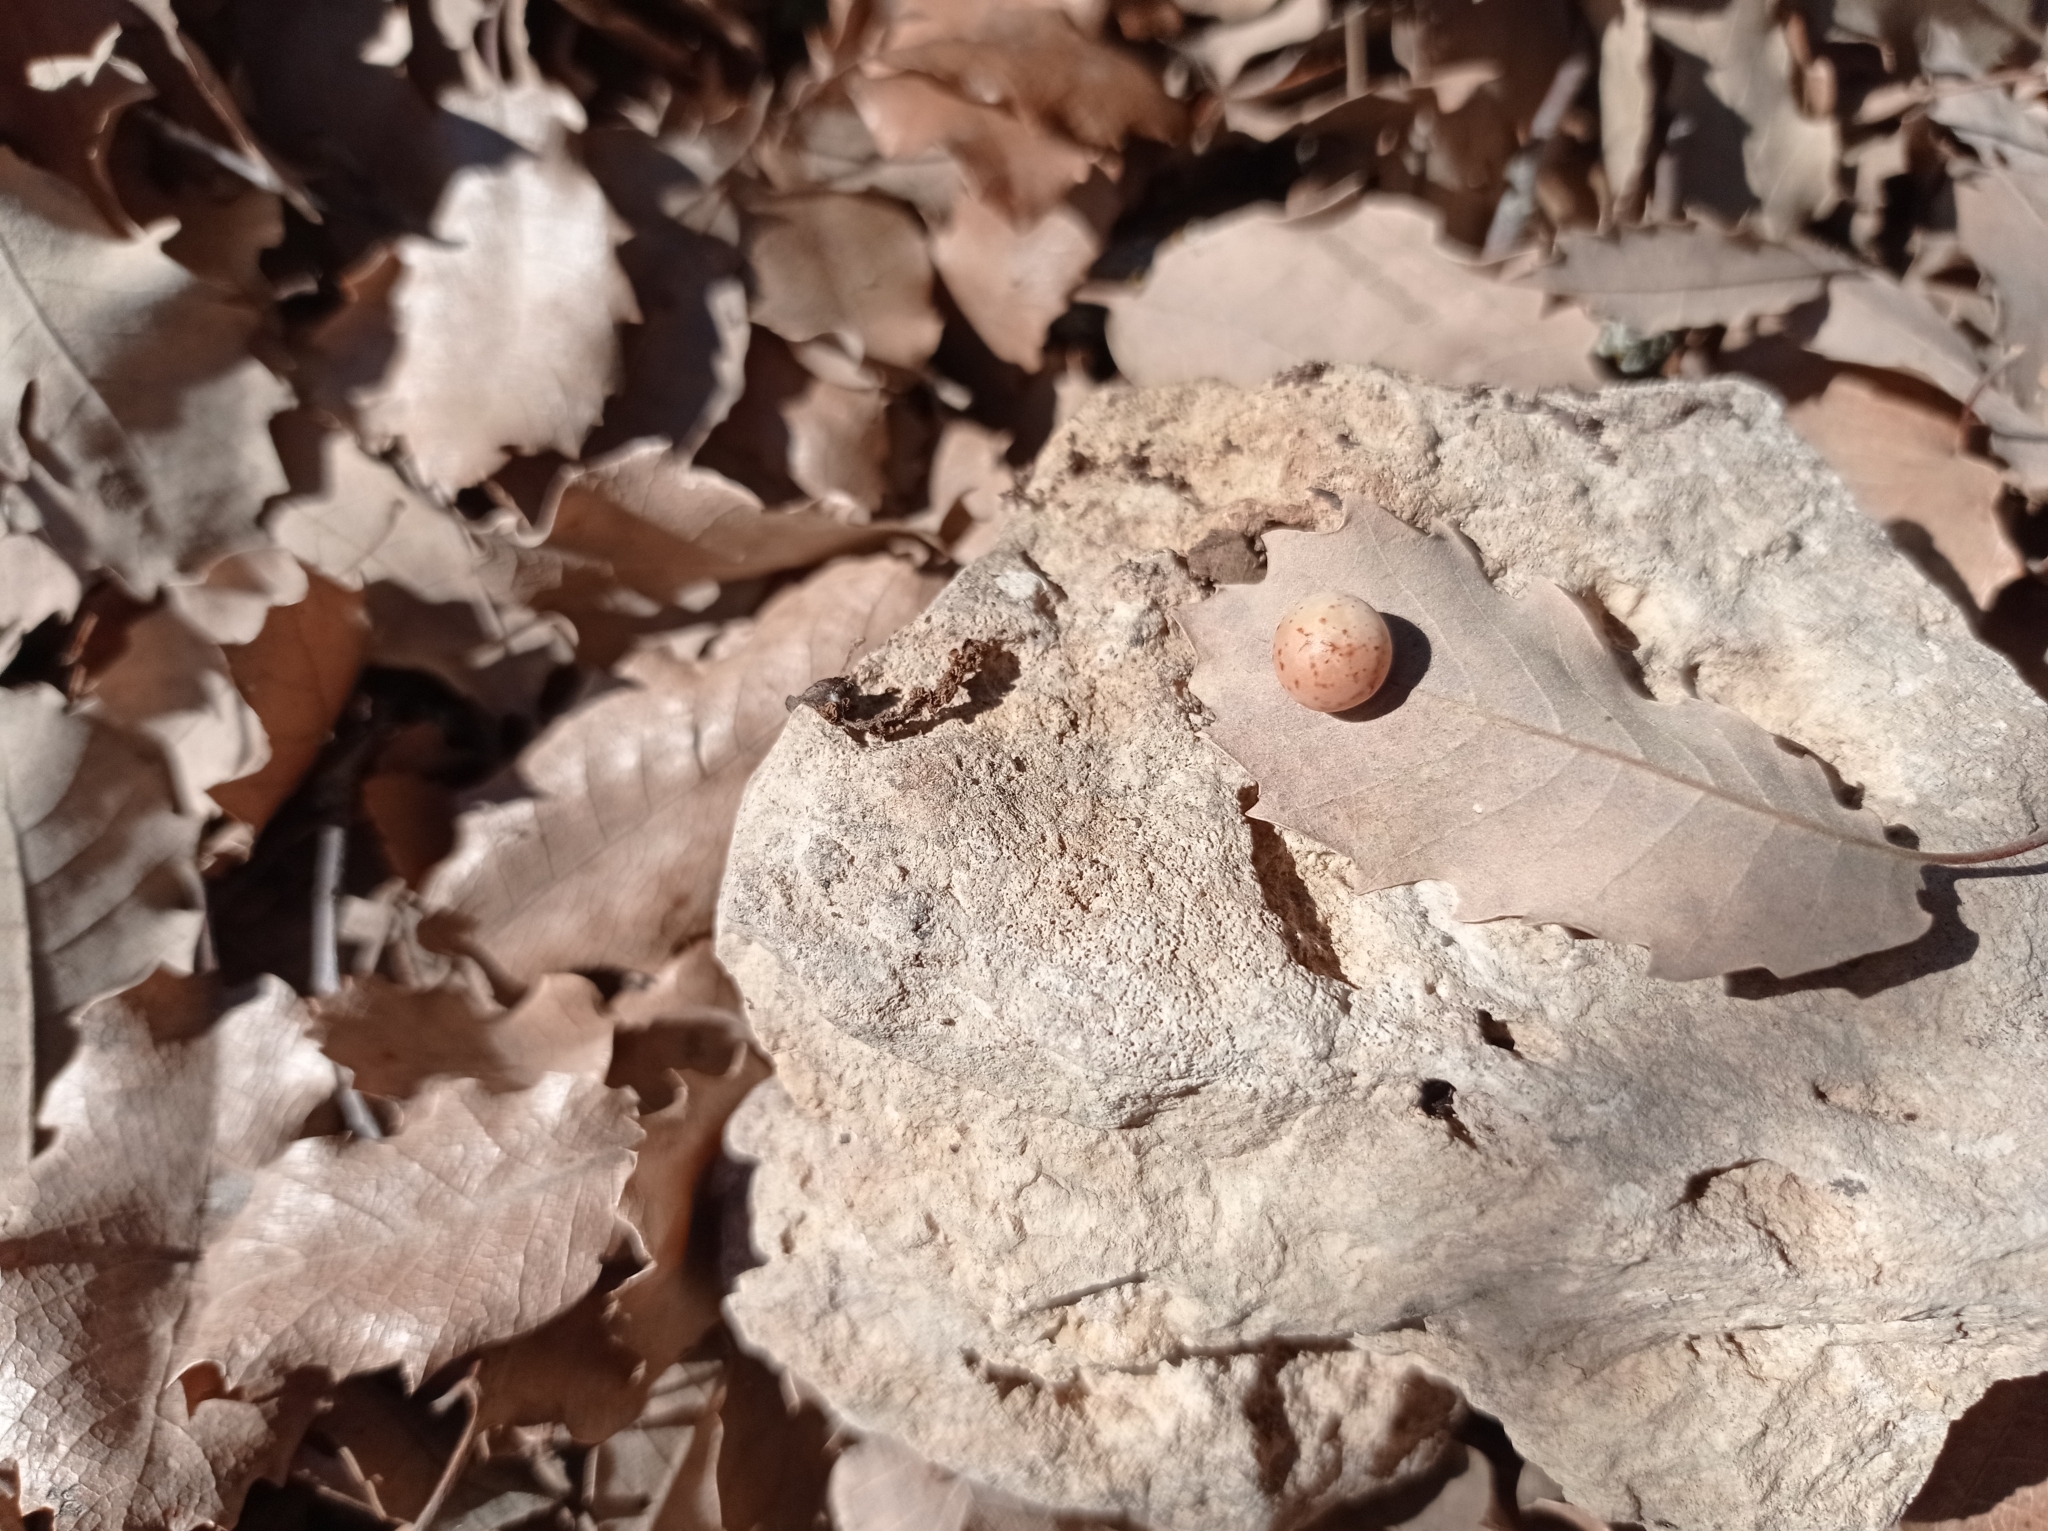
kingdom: Animalia
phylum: Arthropoda
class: Insecta
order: Hymenoptera
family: Cynipidae
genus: Cynips
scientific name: Cynips quercus
